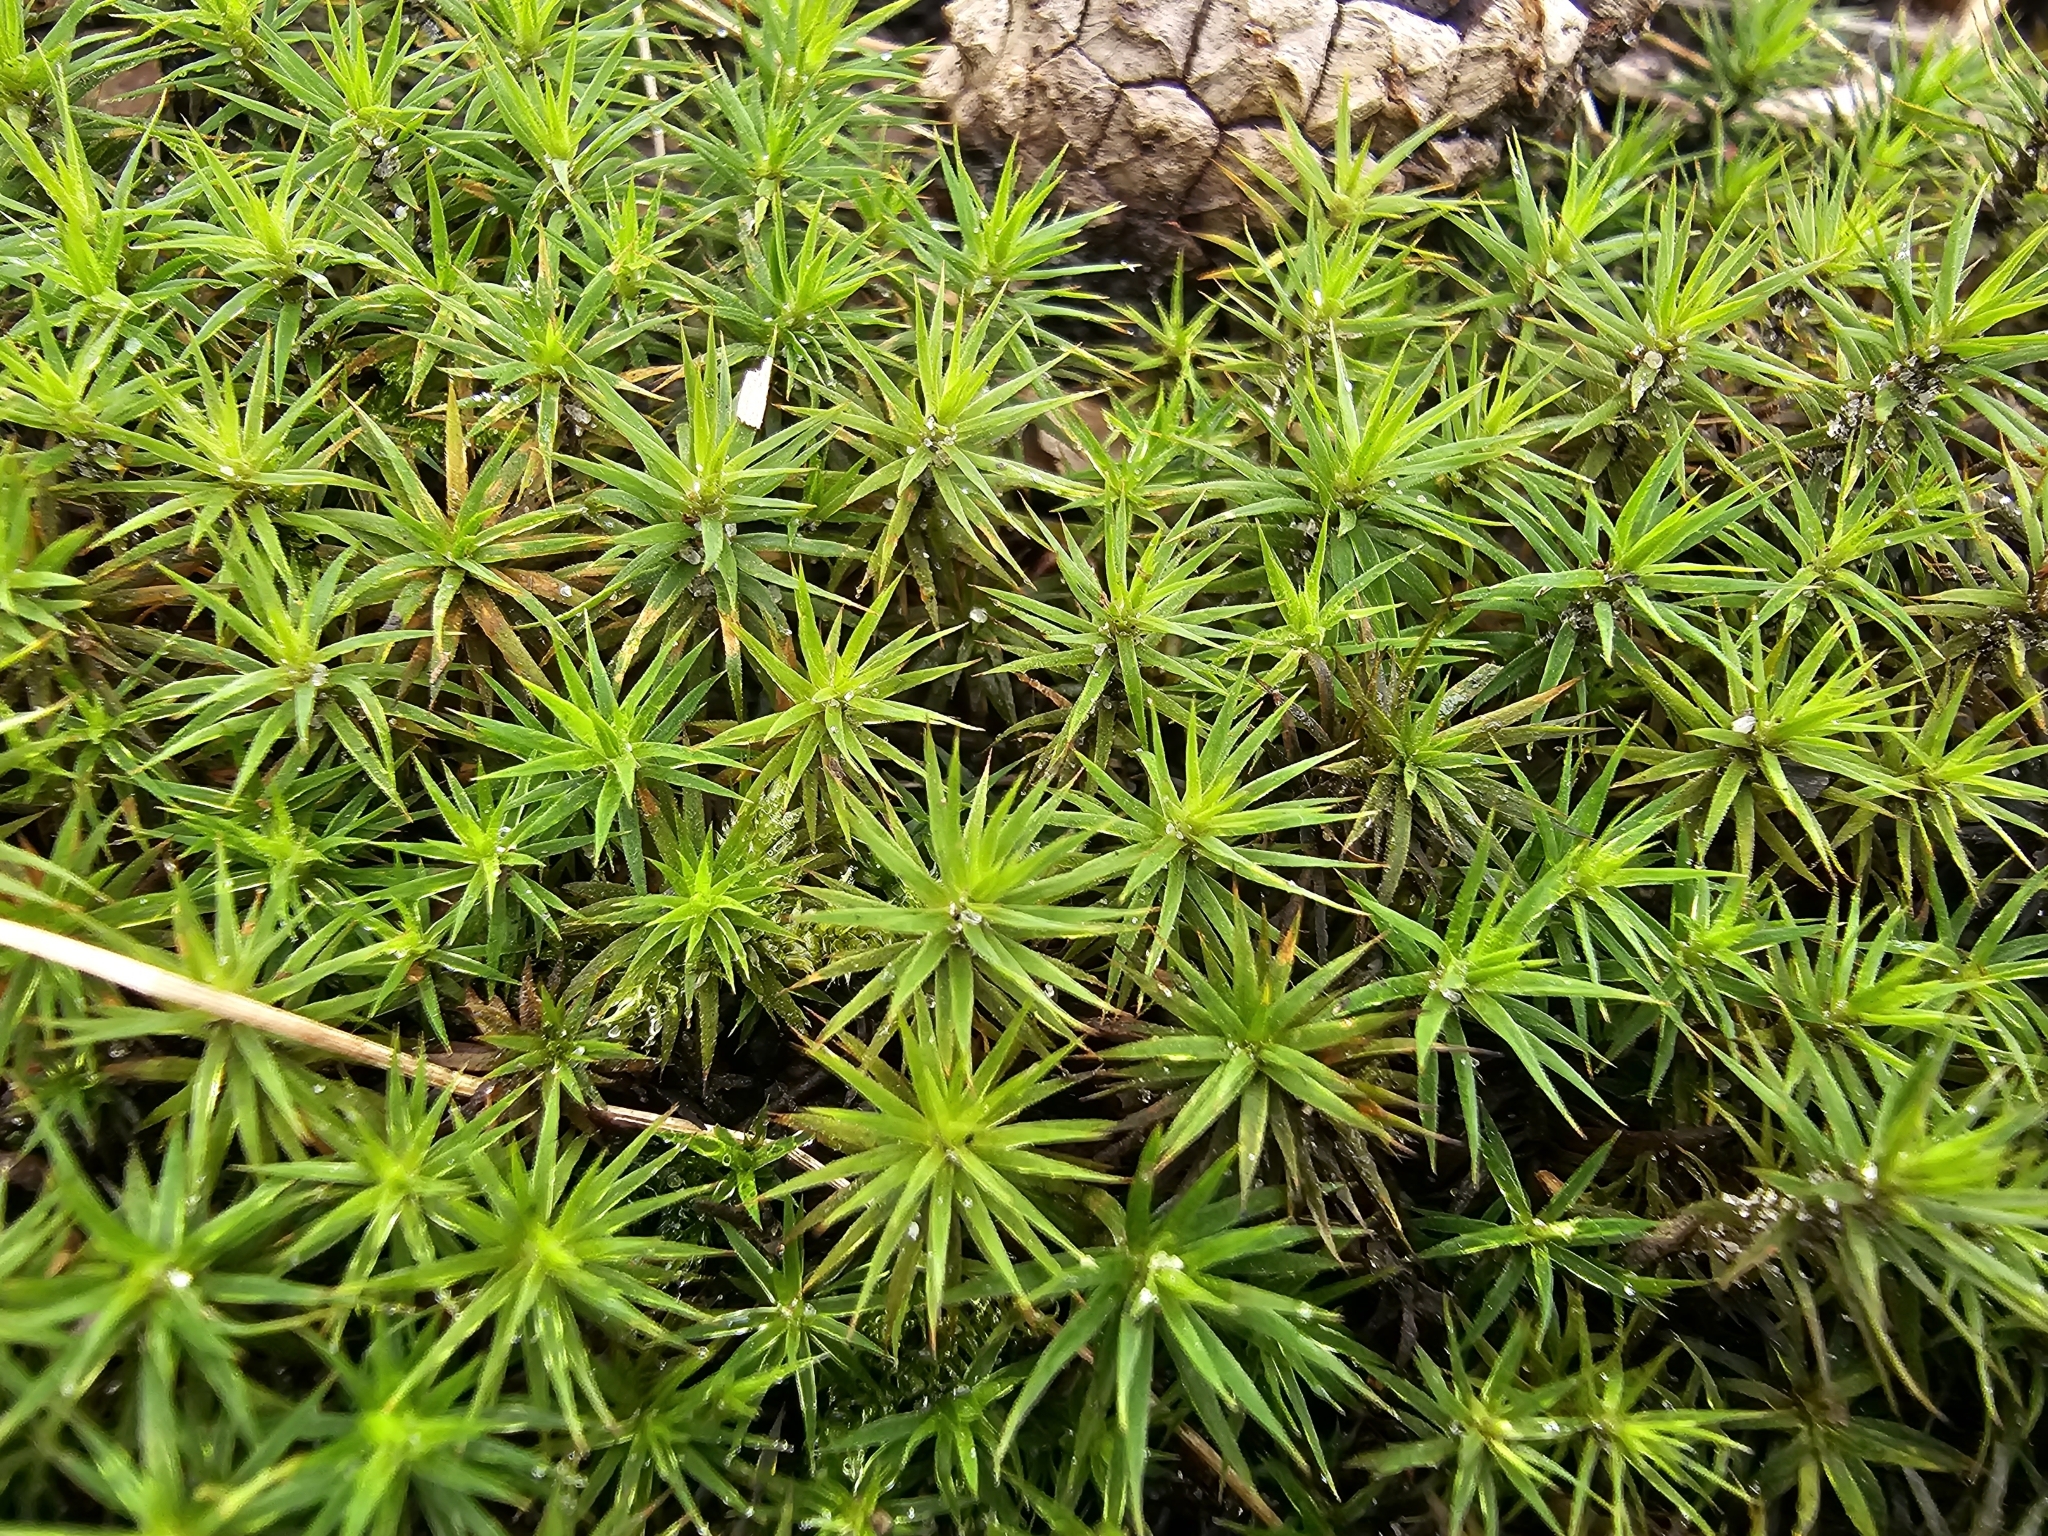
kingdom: Plantae
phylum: Bryophyta
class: Polytrichopsida
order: Polytrichales
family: Polytrichaceae
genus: Polytrichum
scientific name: Polytrichum formosum
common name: Bank haircap moss
